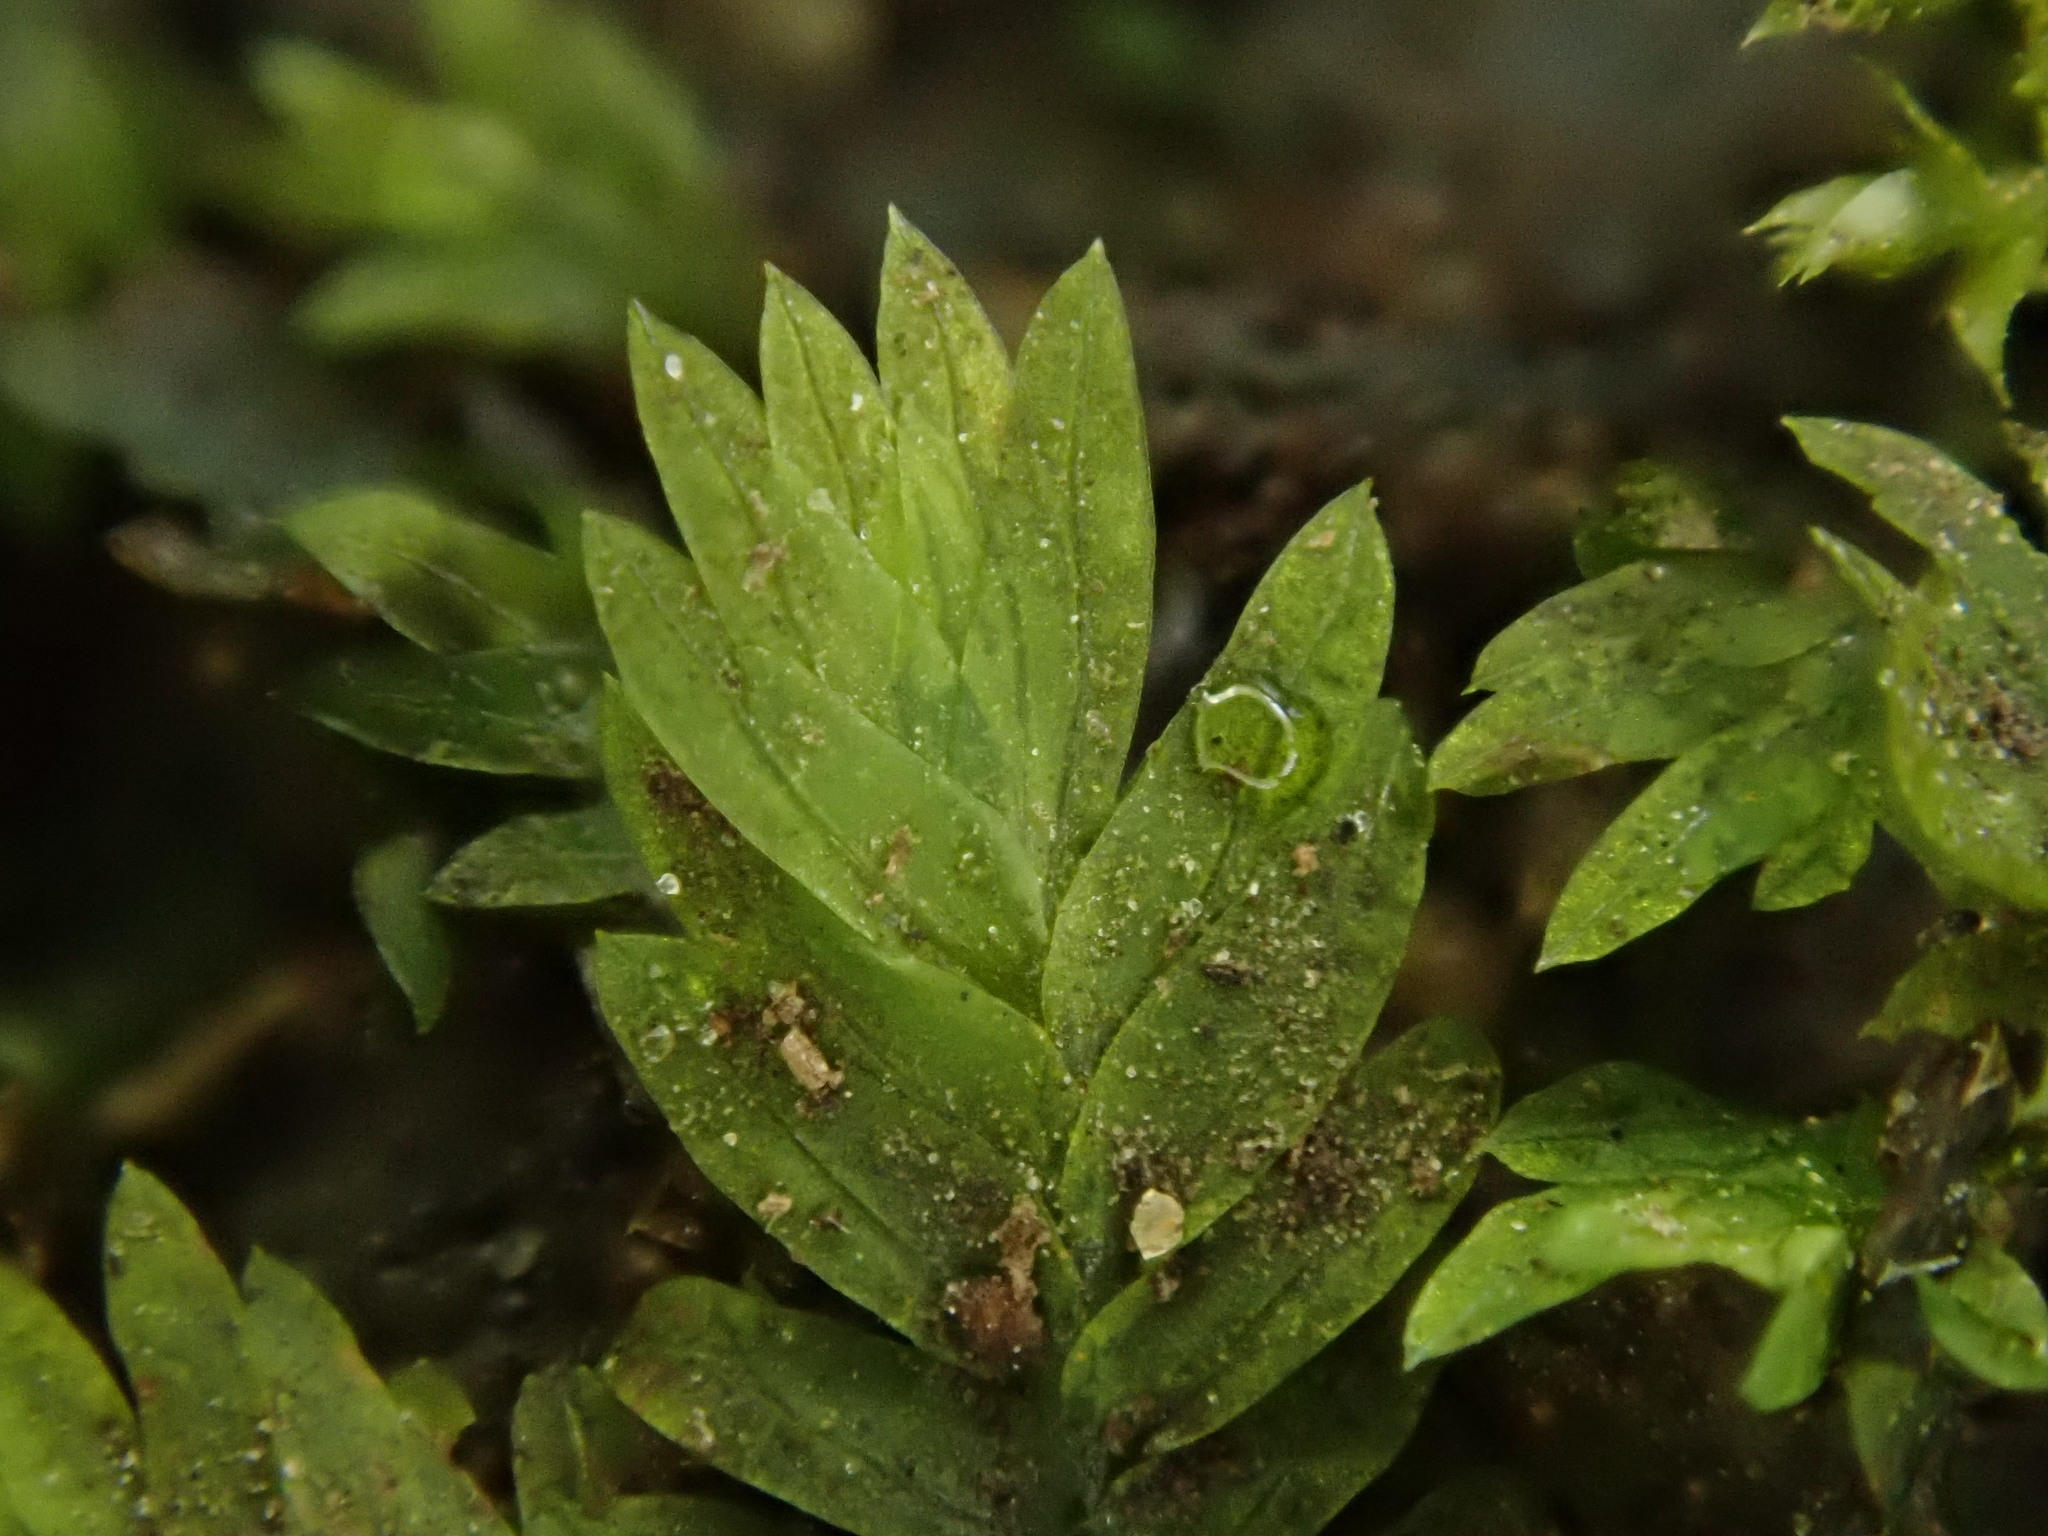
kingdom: Plantae
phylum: Bryophyta
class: Bryopsida
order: Dicranales
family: Fissidentaceae
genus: Fissidens
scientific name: Fissidens taxifolius
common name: Yew-leaved pocket moss
